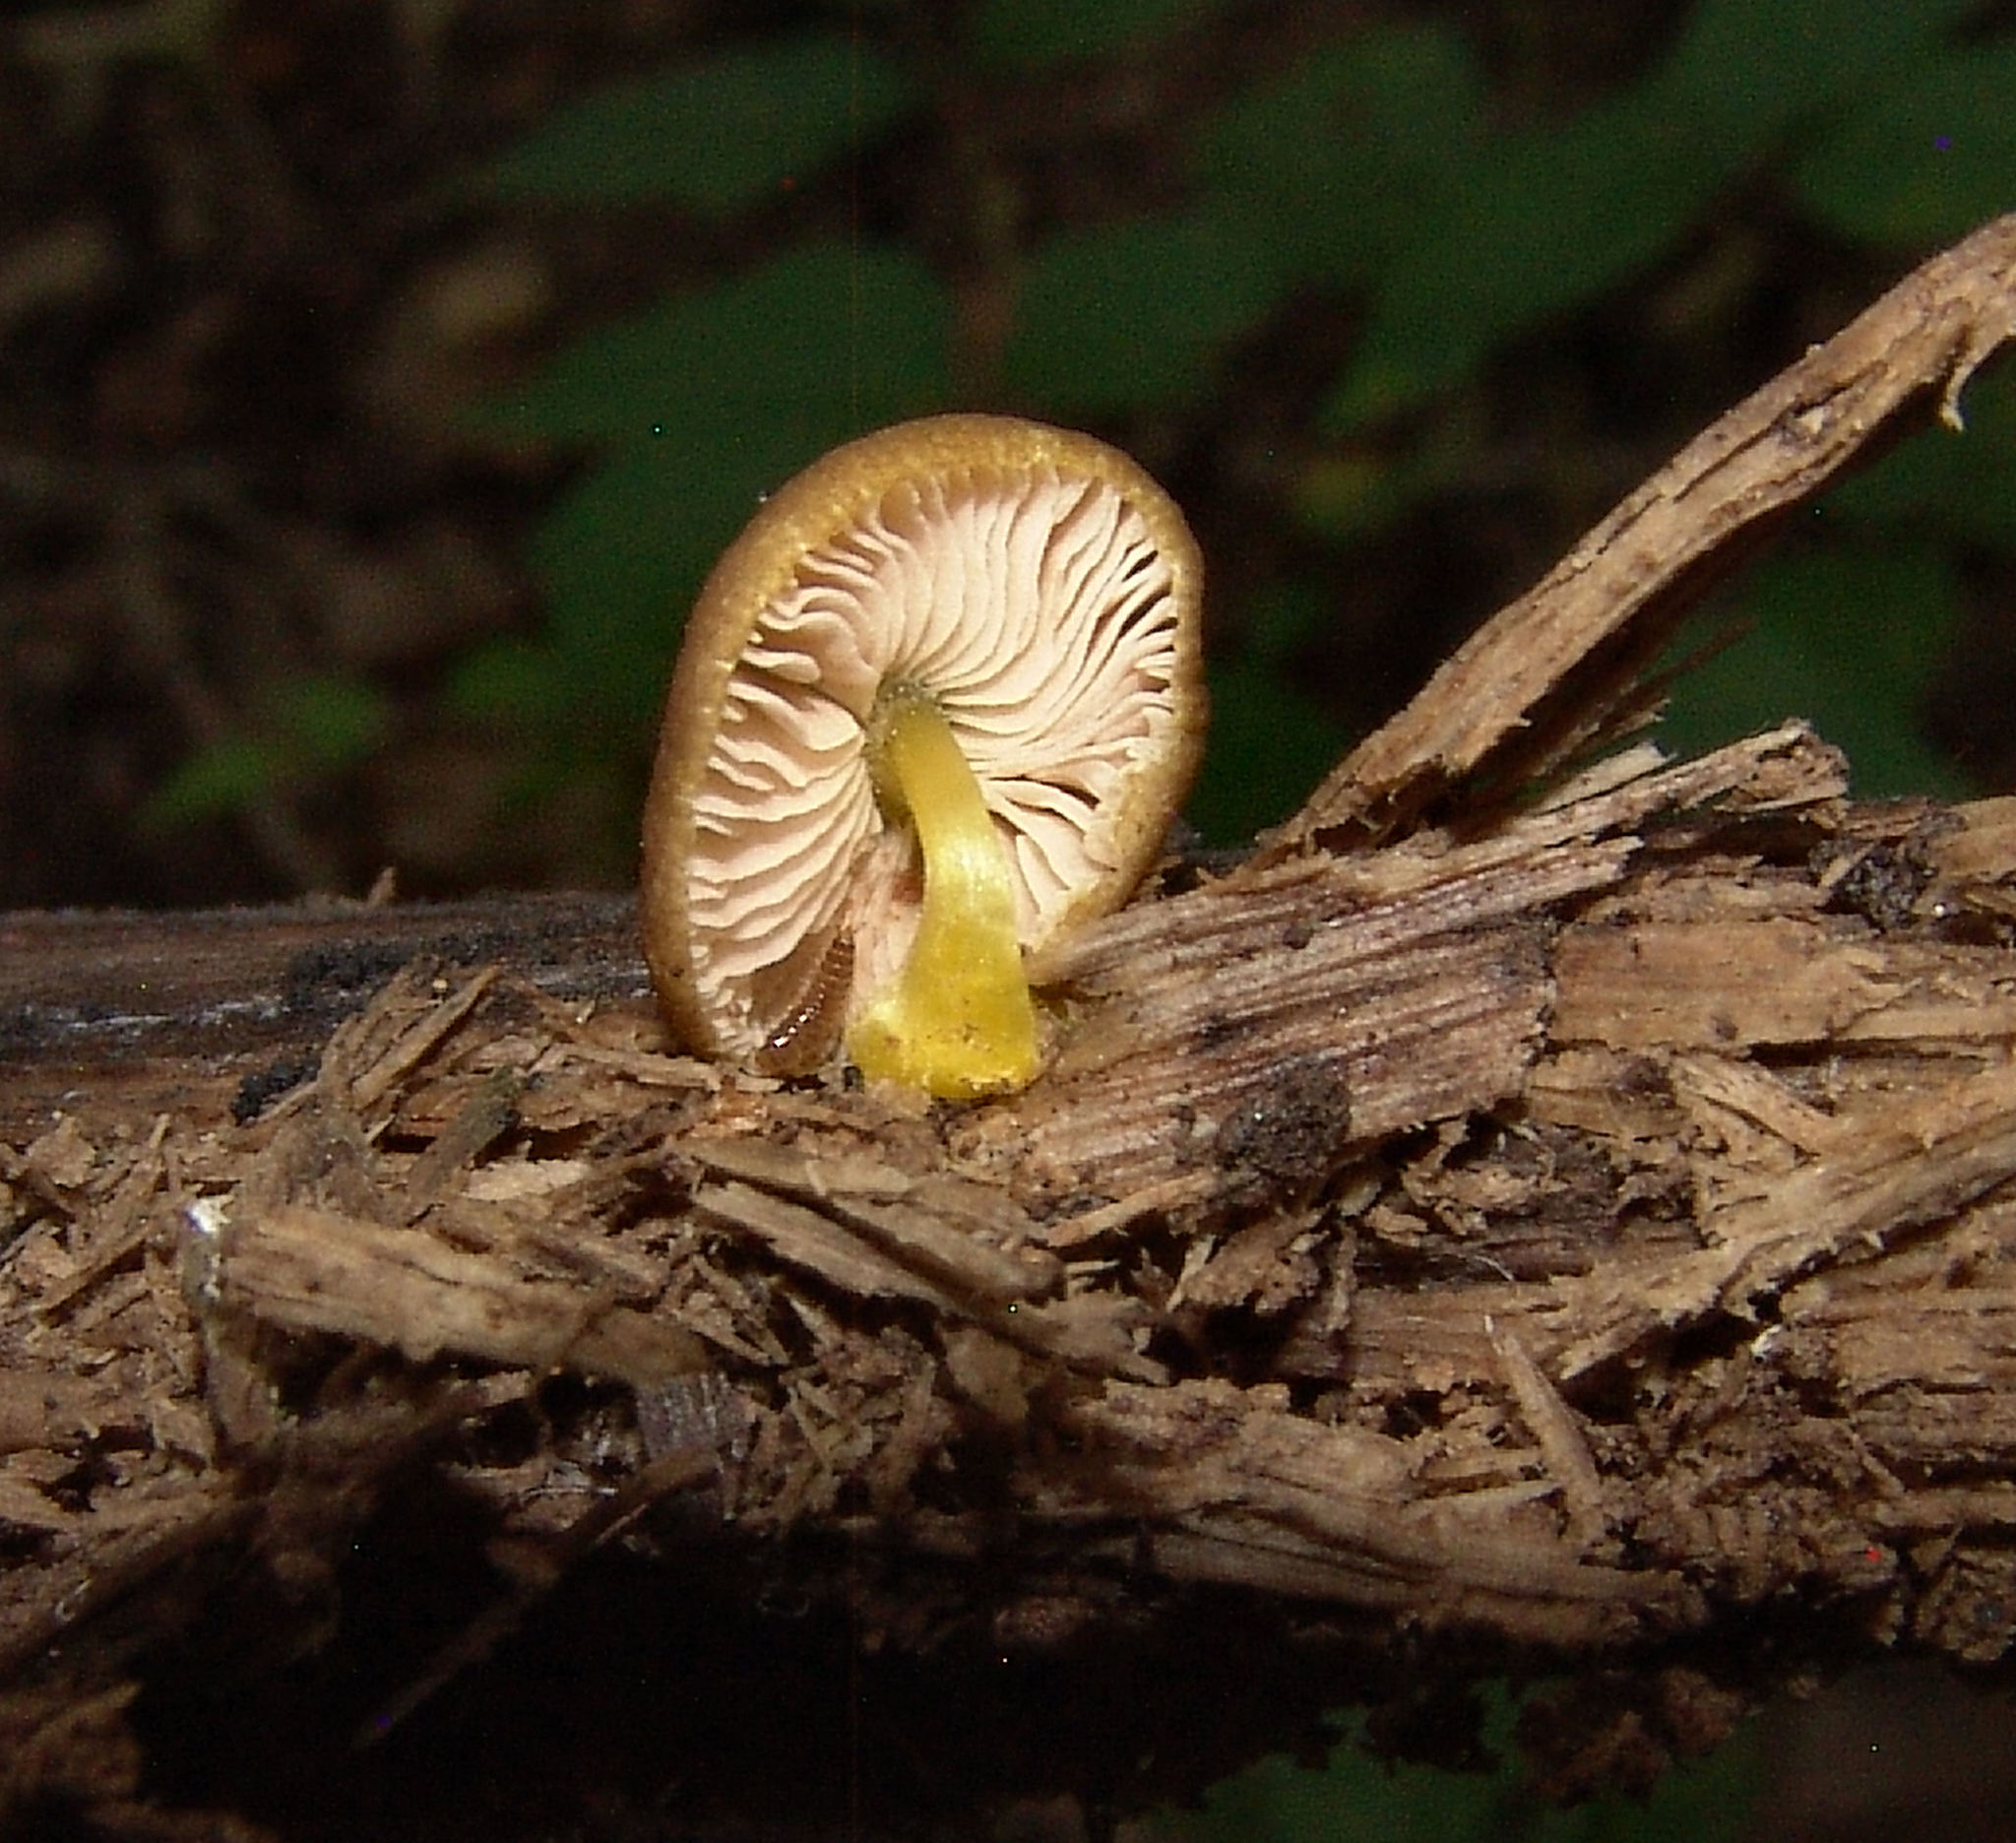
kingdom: Fungi
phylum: Basidiomycota
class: Agaricomycetes
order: Agaricales
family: Pluteaceae
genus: Pluteus
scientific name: Pluteus chrysophlebius
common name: Yellow deer mushroom
